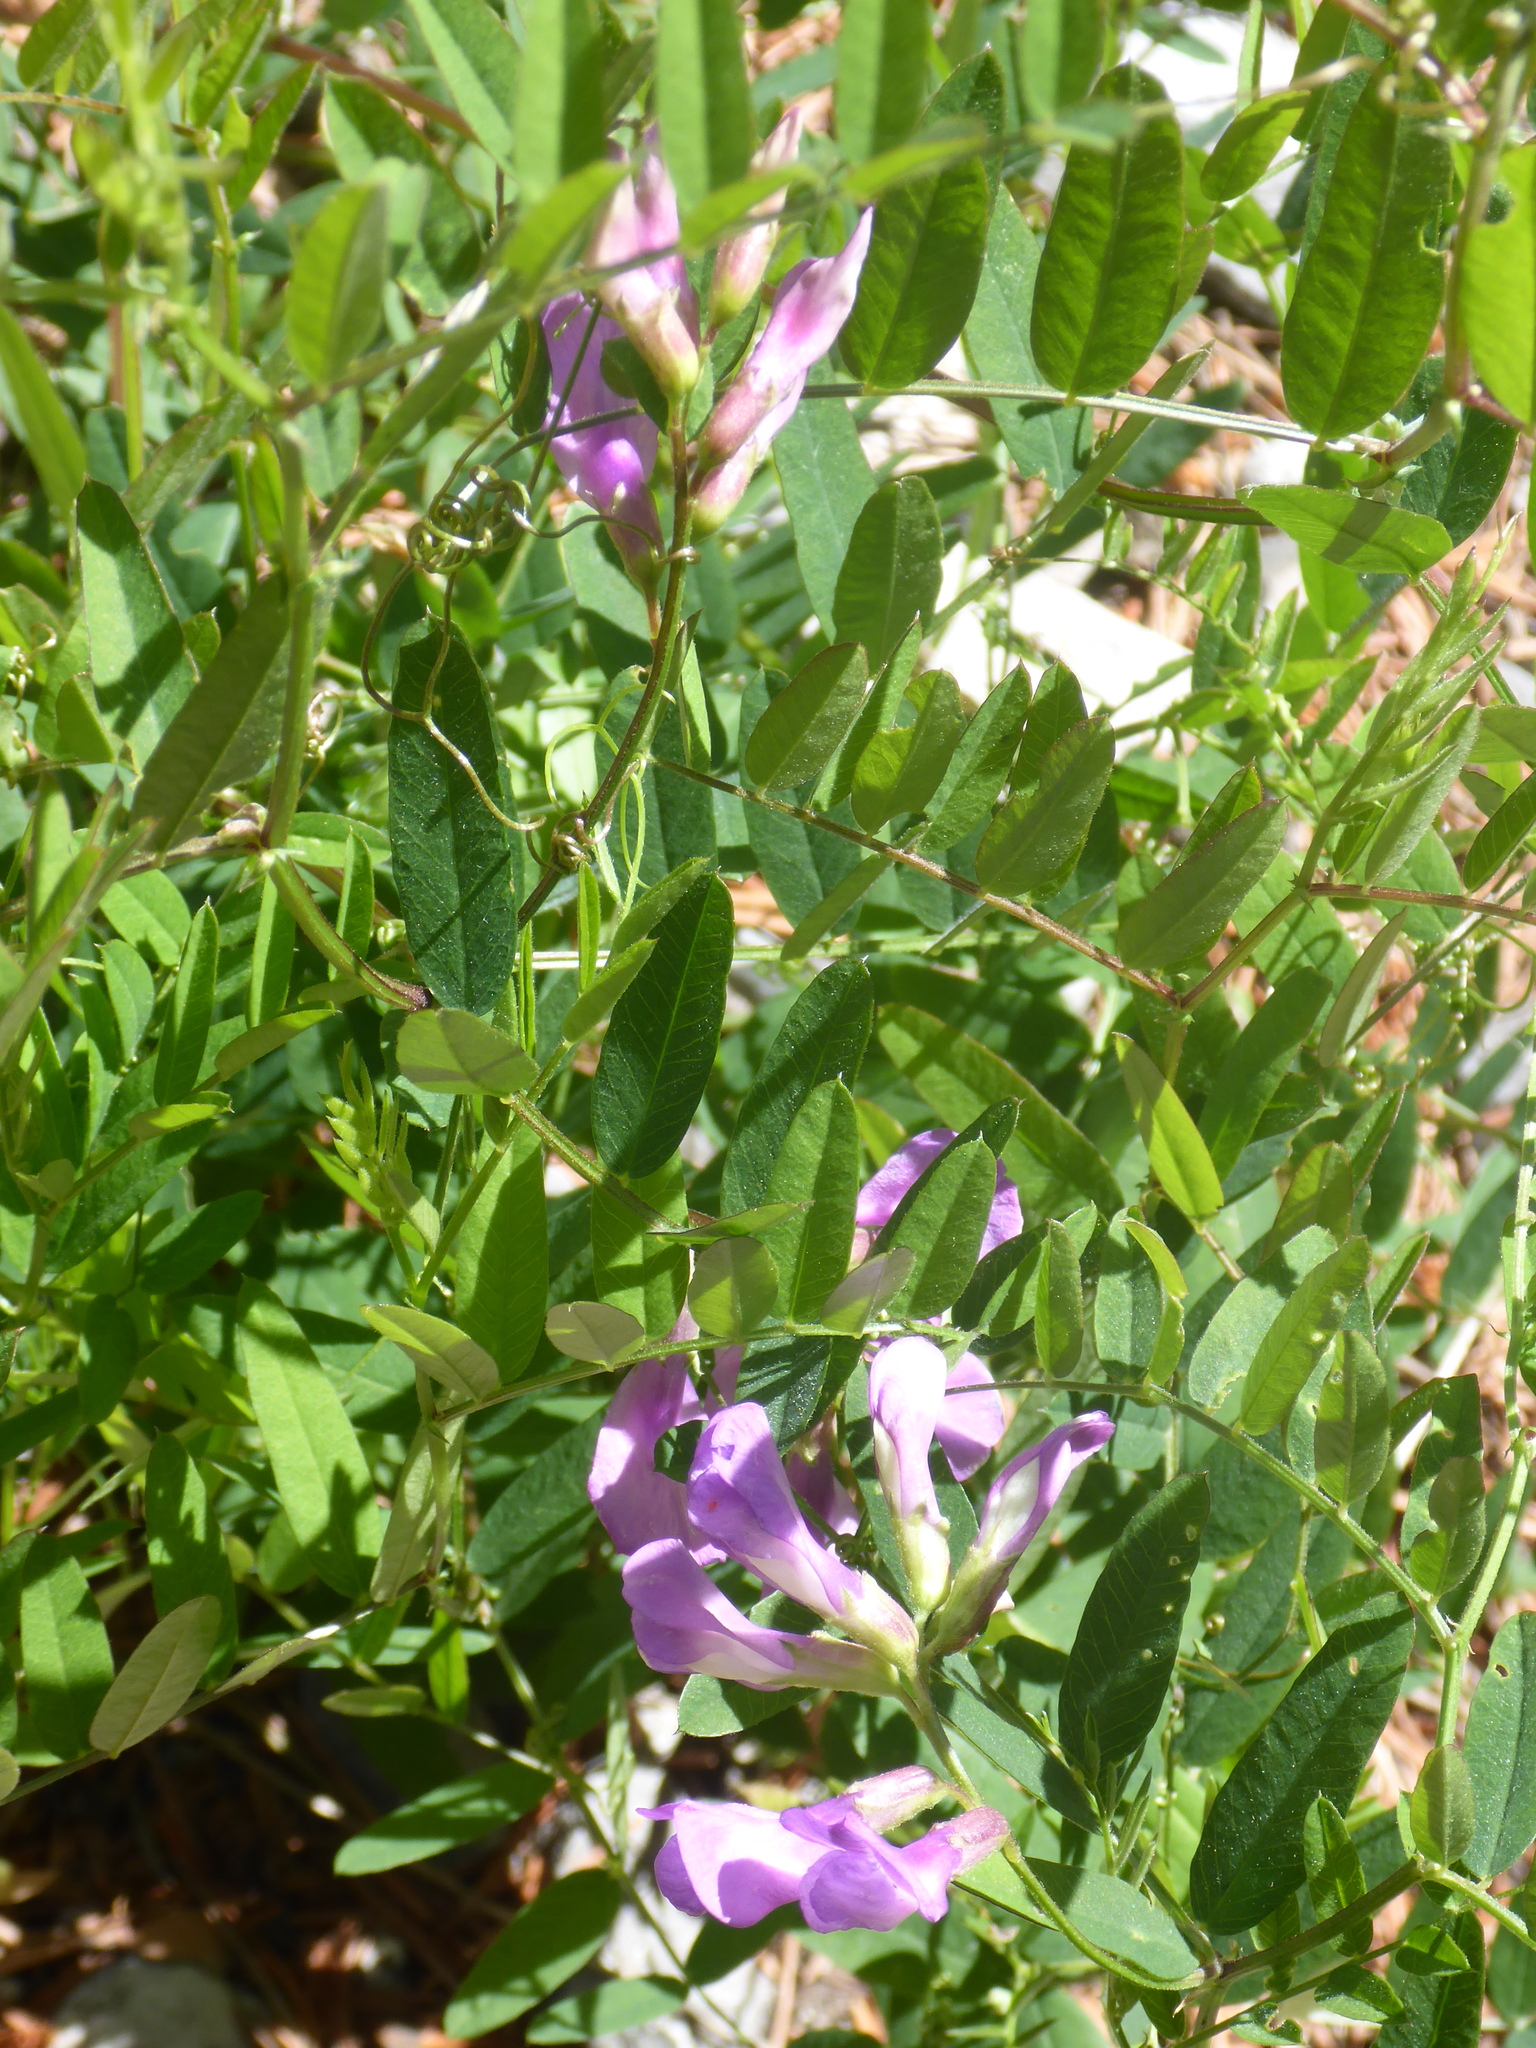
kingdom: Plantae
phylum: Tracheophyta
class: Magnoliopsida
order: Fabales
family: Fabaceae
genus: Vicia
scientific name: Vicia americana
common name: American vetch
